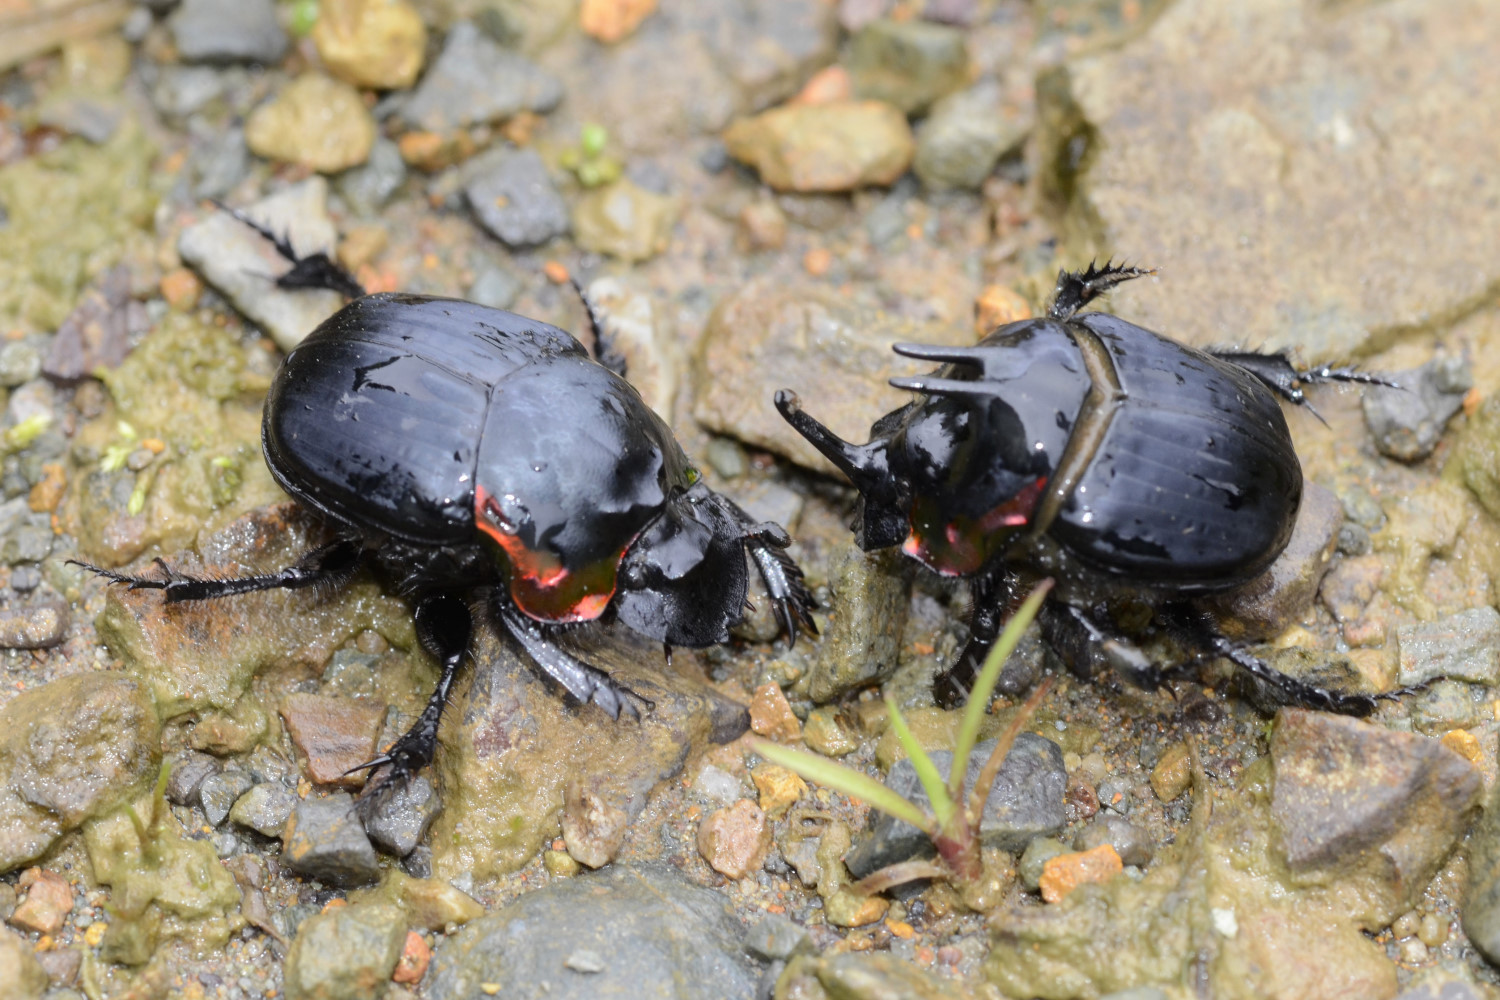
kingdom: Animalia
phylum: Arthropoda
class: Insecta
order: Coleoptera
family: Scarabaeidae
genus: Sulcophanaeus
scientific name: Sulcophanaeus velutinus
